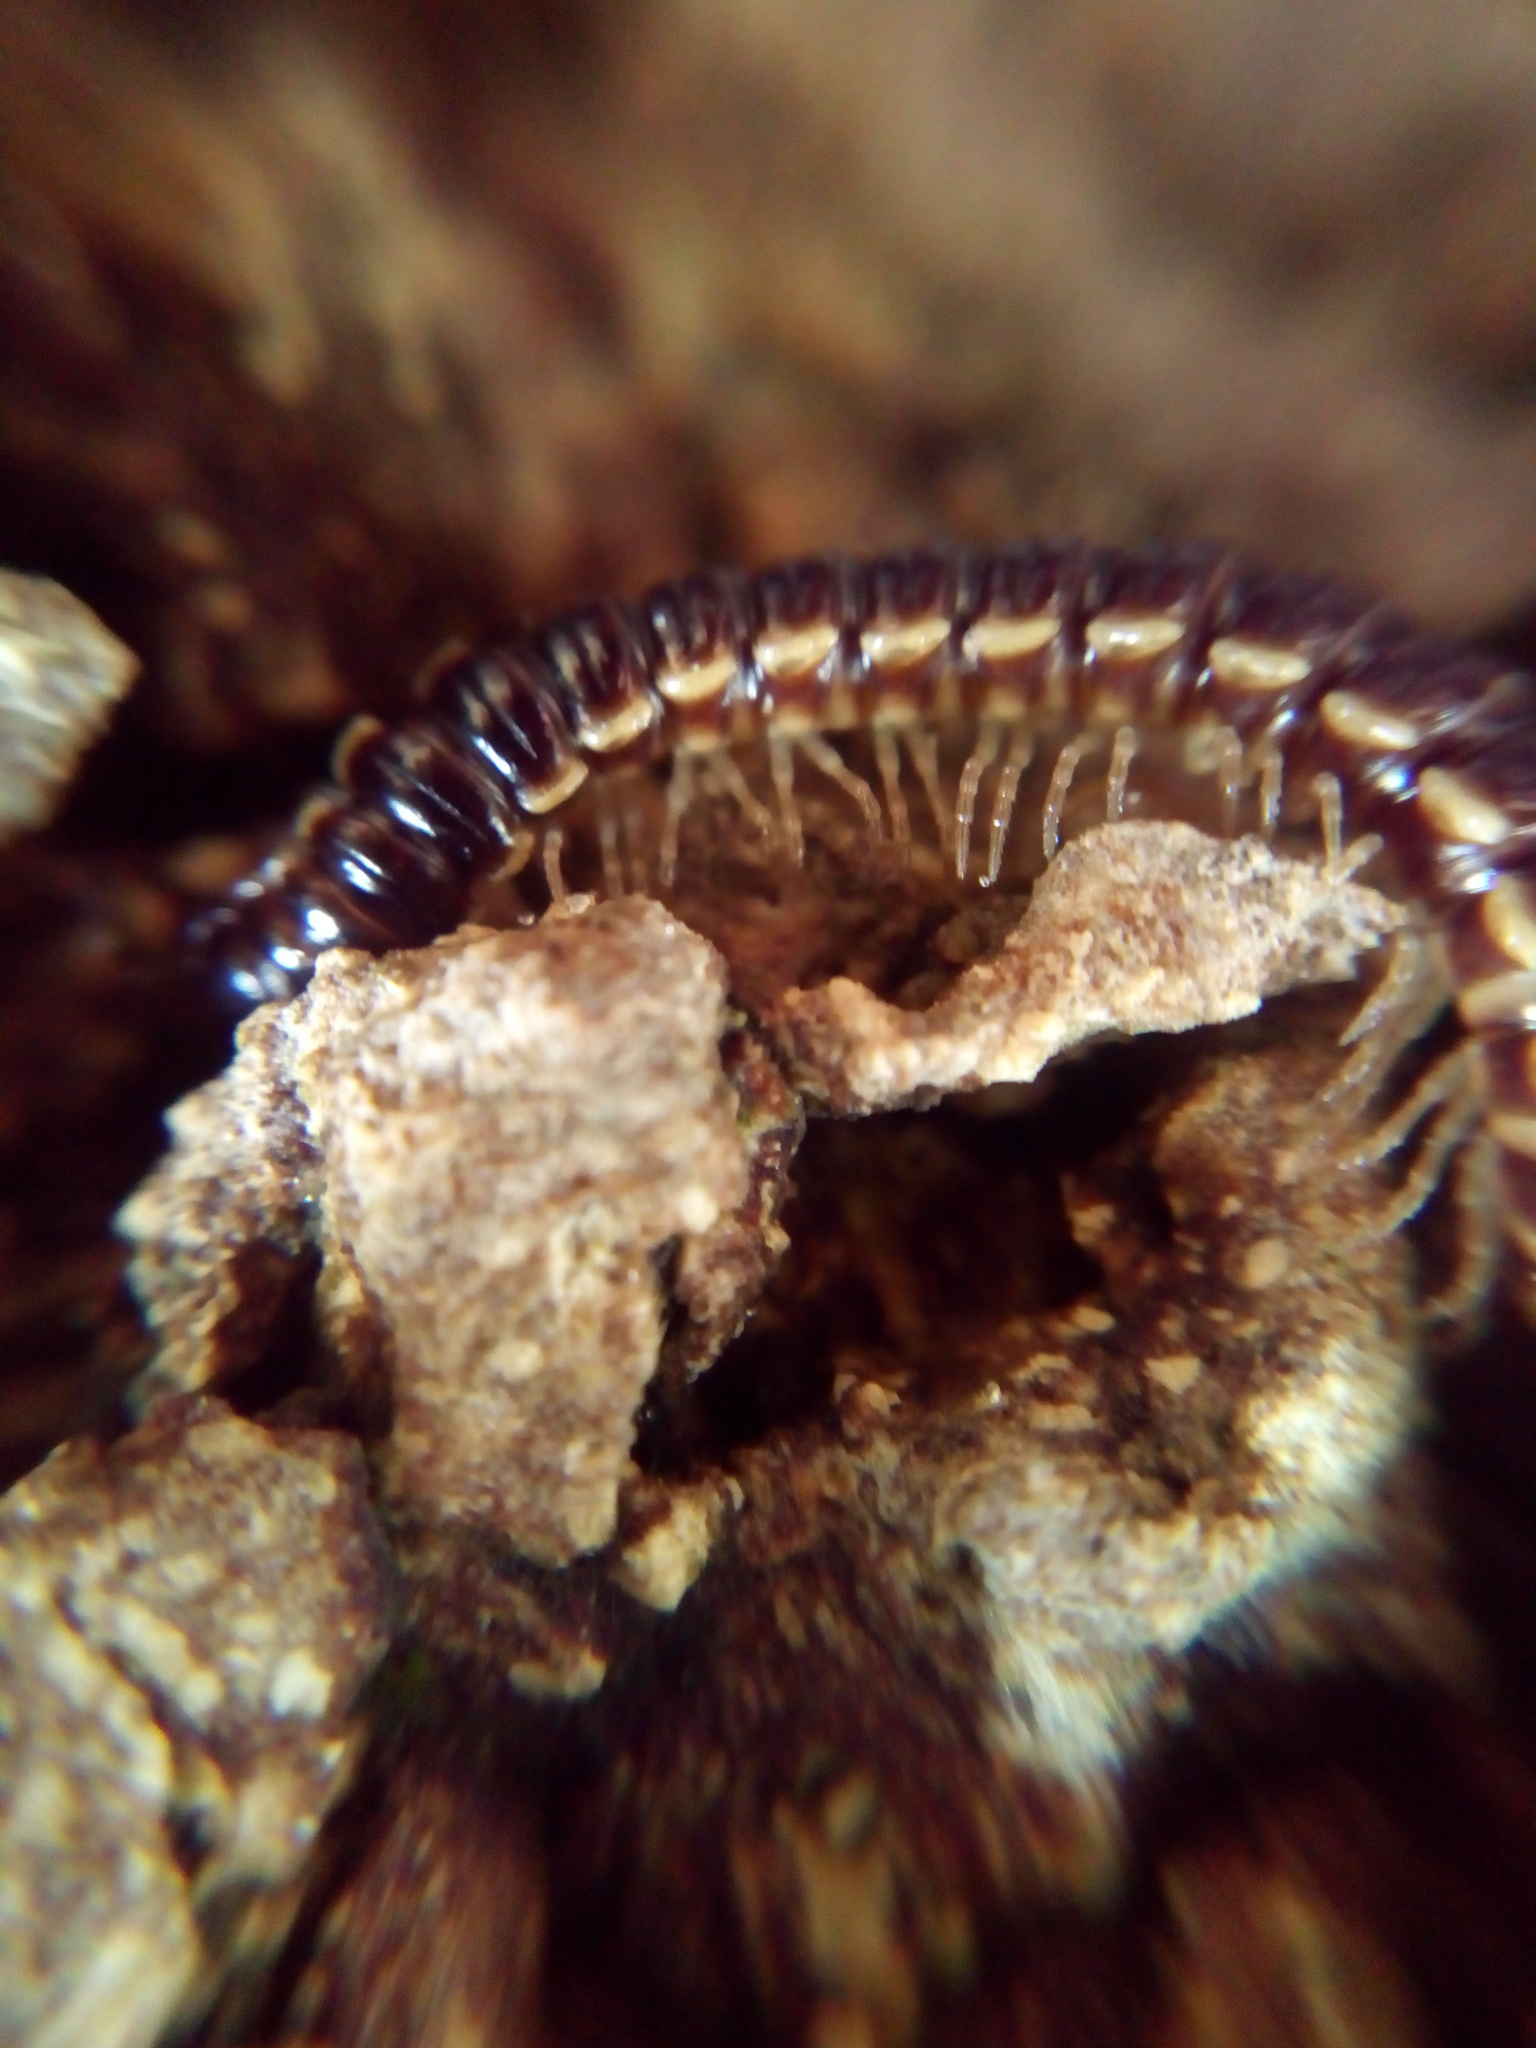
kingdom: Animalia
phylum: Arthropoda
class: Diplopoda
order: Polydesmida
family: Paradoxosomatidae
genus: Oxidus
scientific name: Oxidus gracilis
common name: Greenhouse millipede
